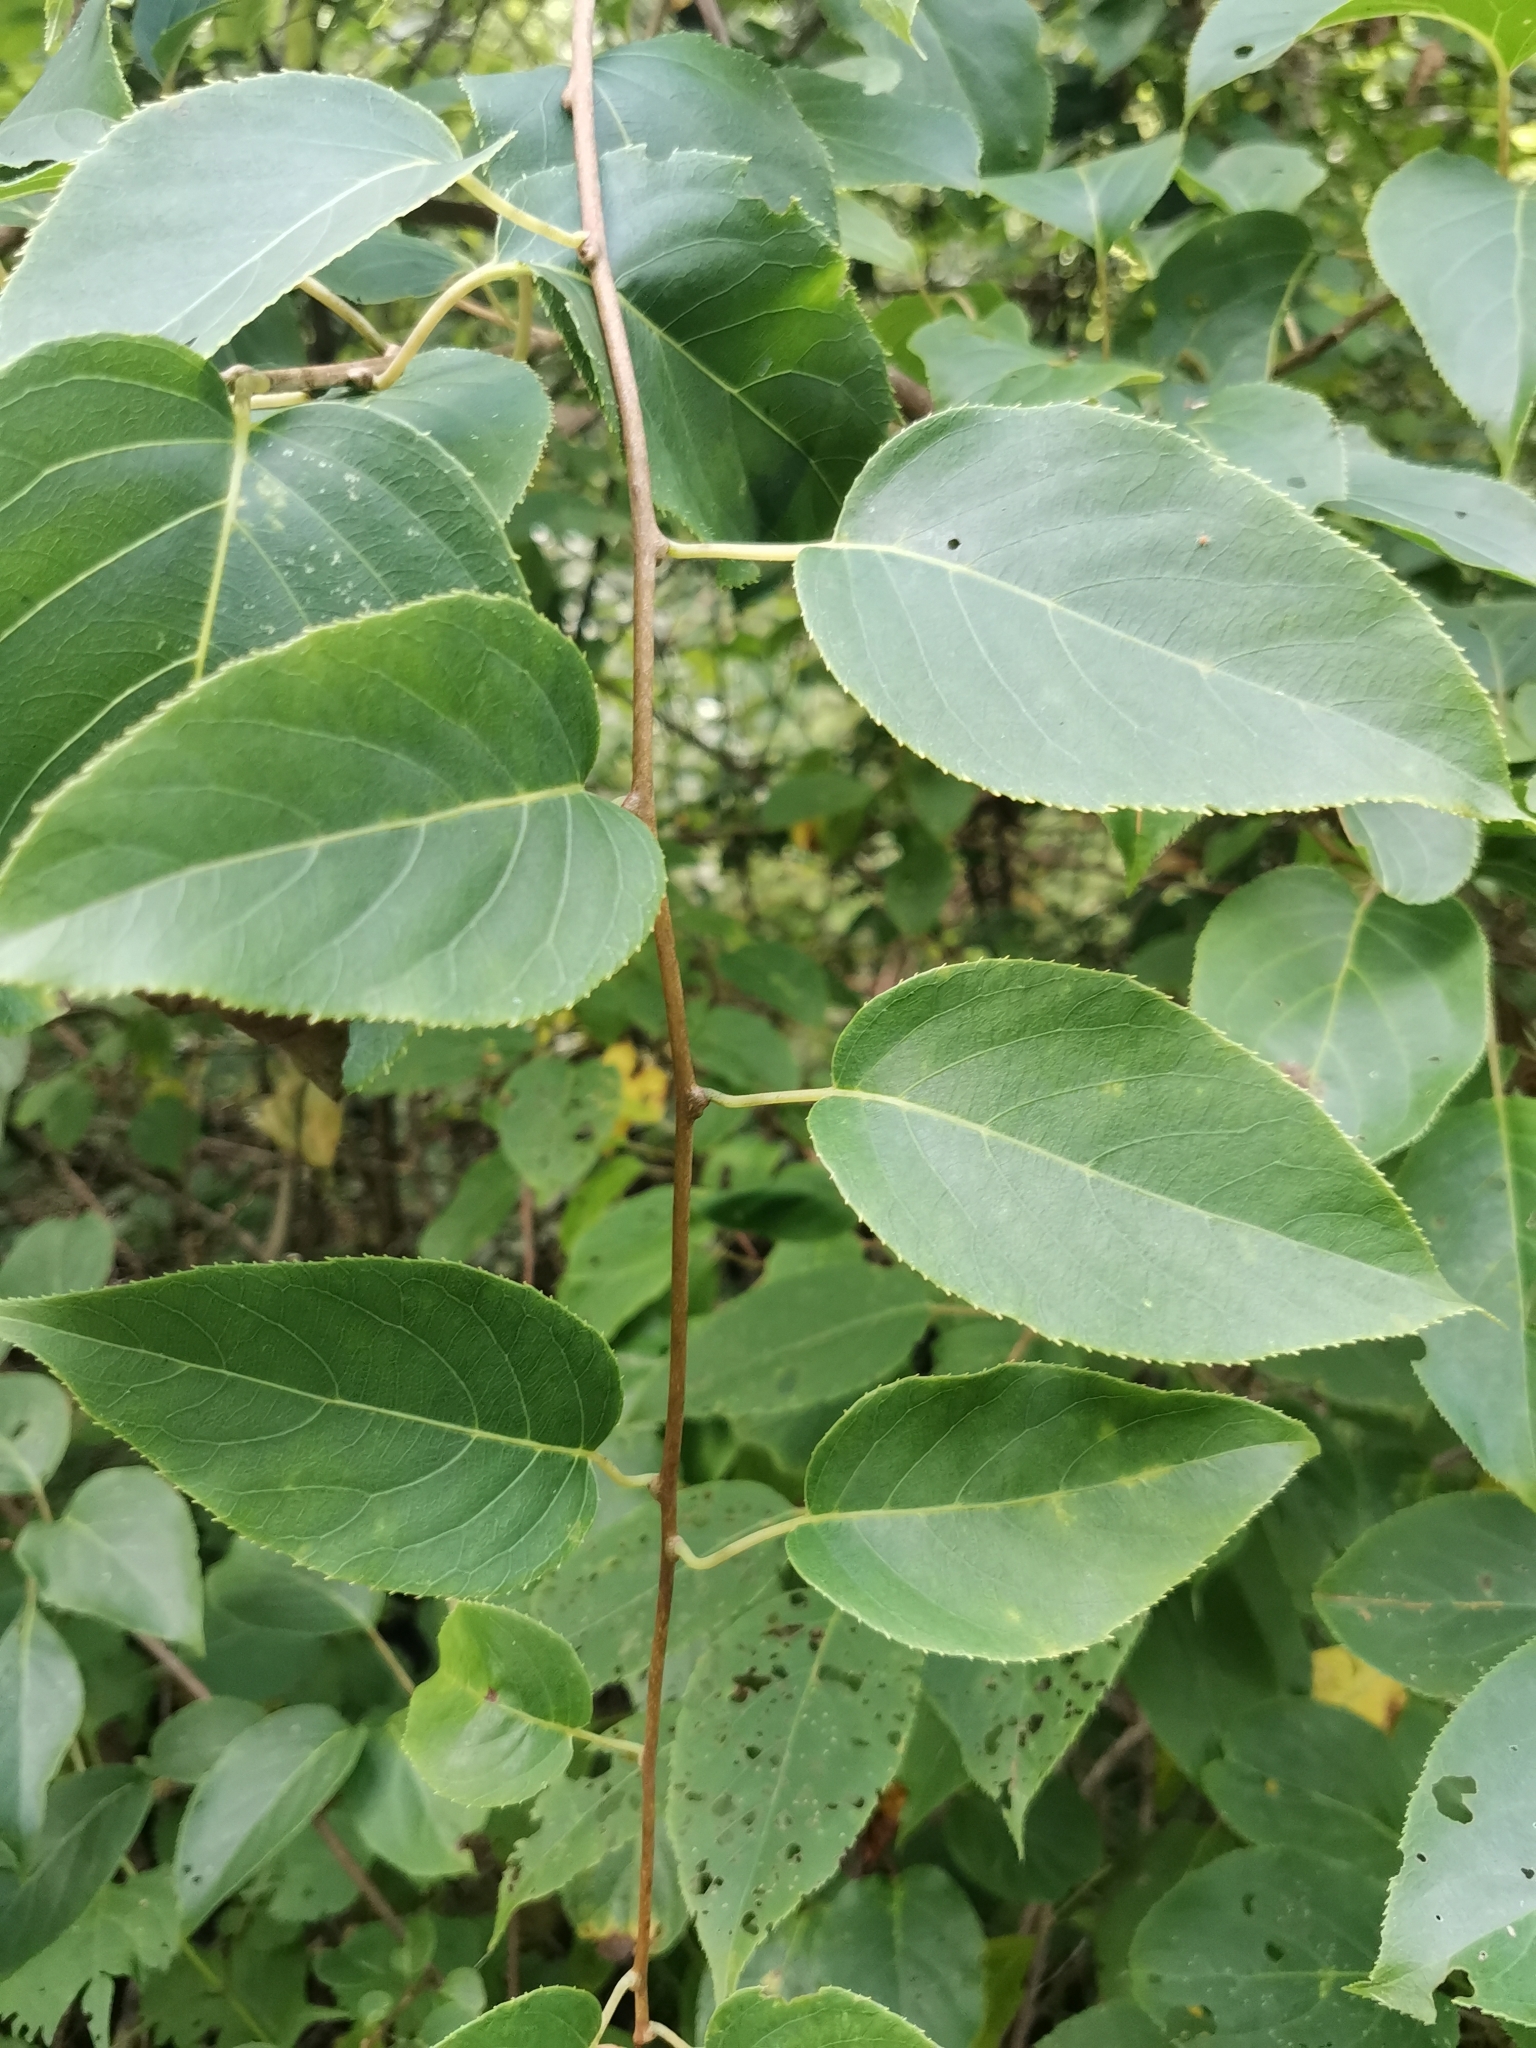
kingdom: Plantae
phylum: Tracheophyta
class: Magnoliopsida
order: Ericales
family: Actinidiaceae
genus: Actinidia
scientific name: Actinidia arguta
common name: Tara vine
